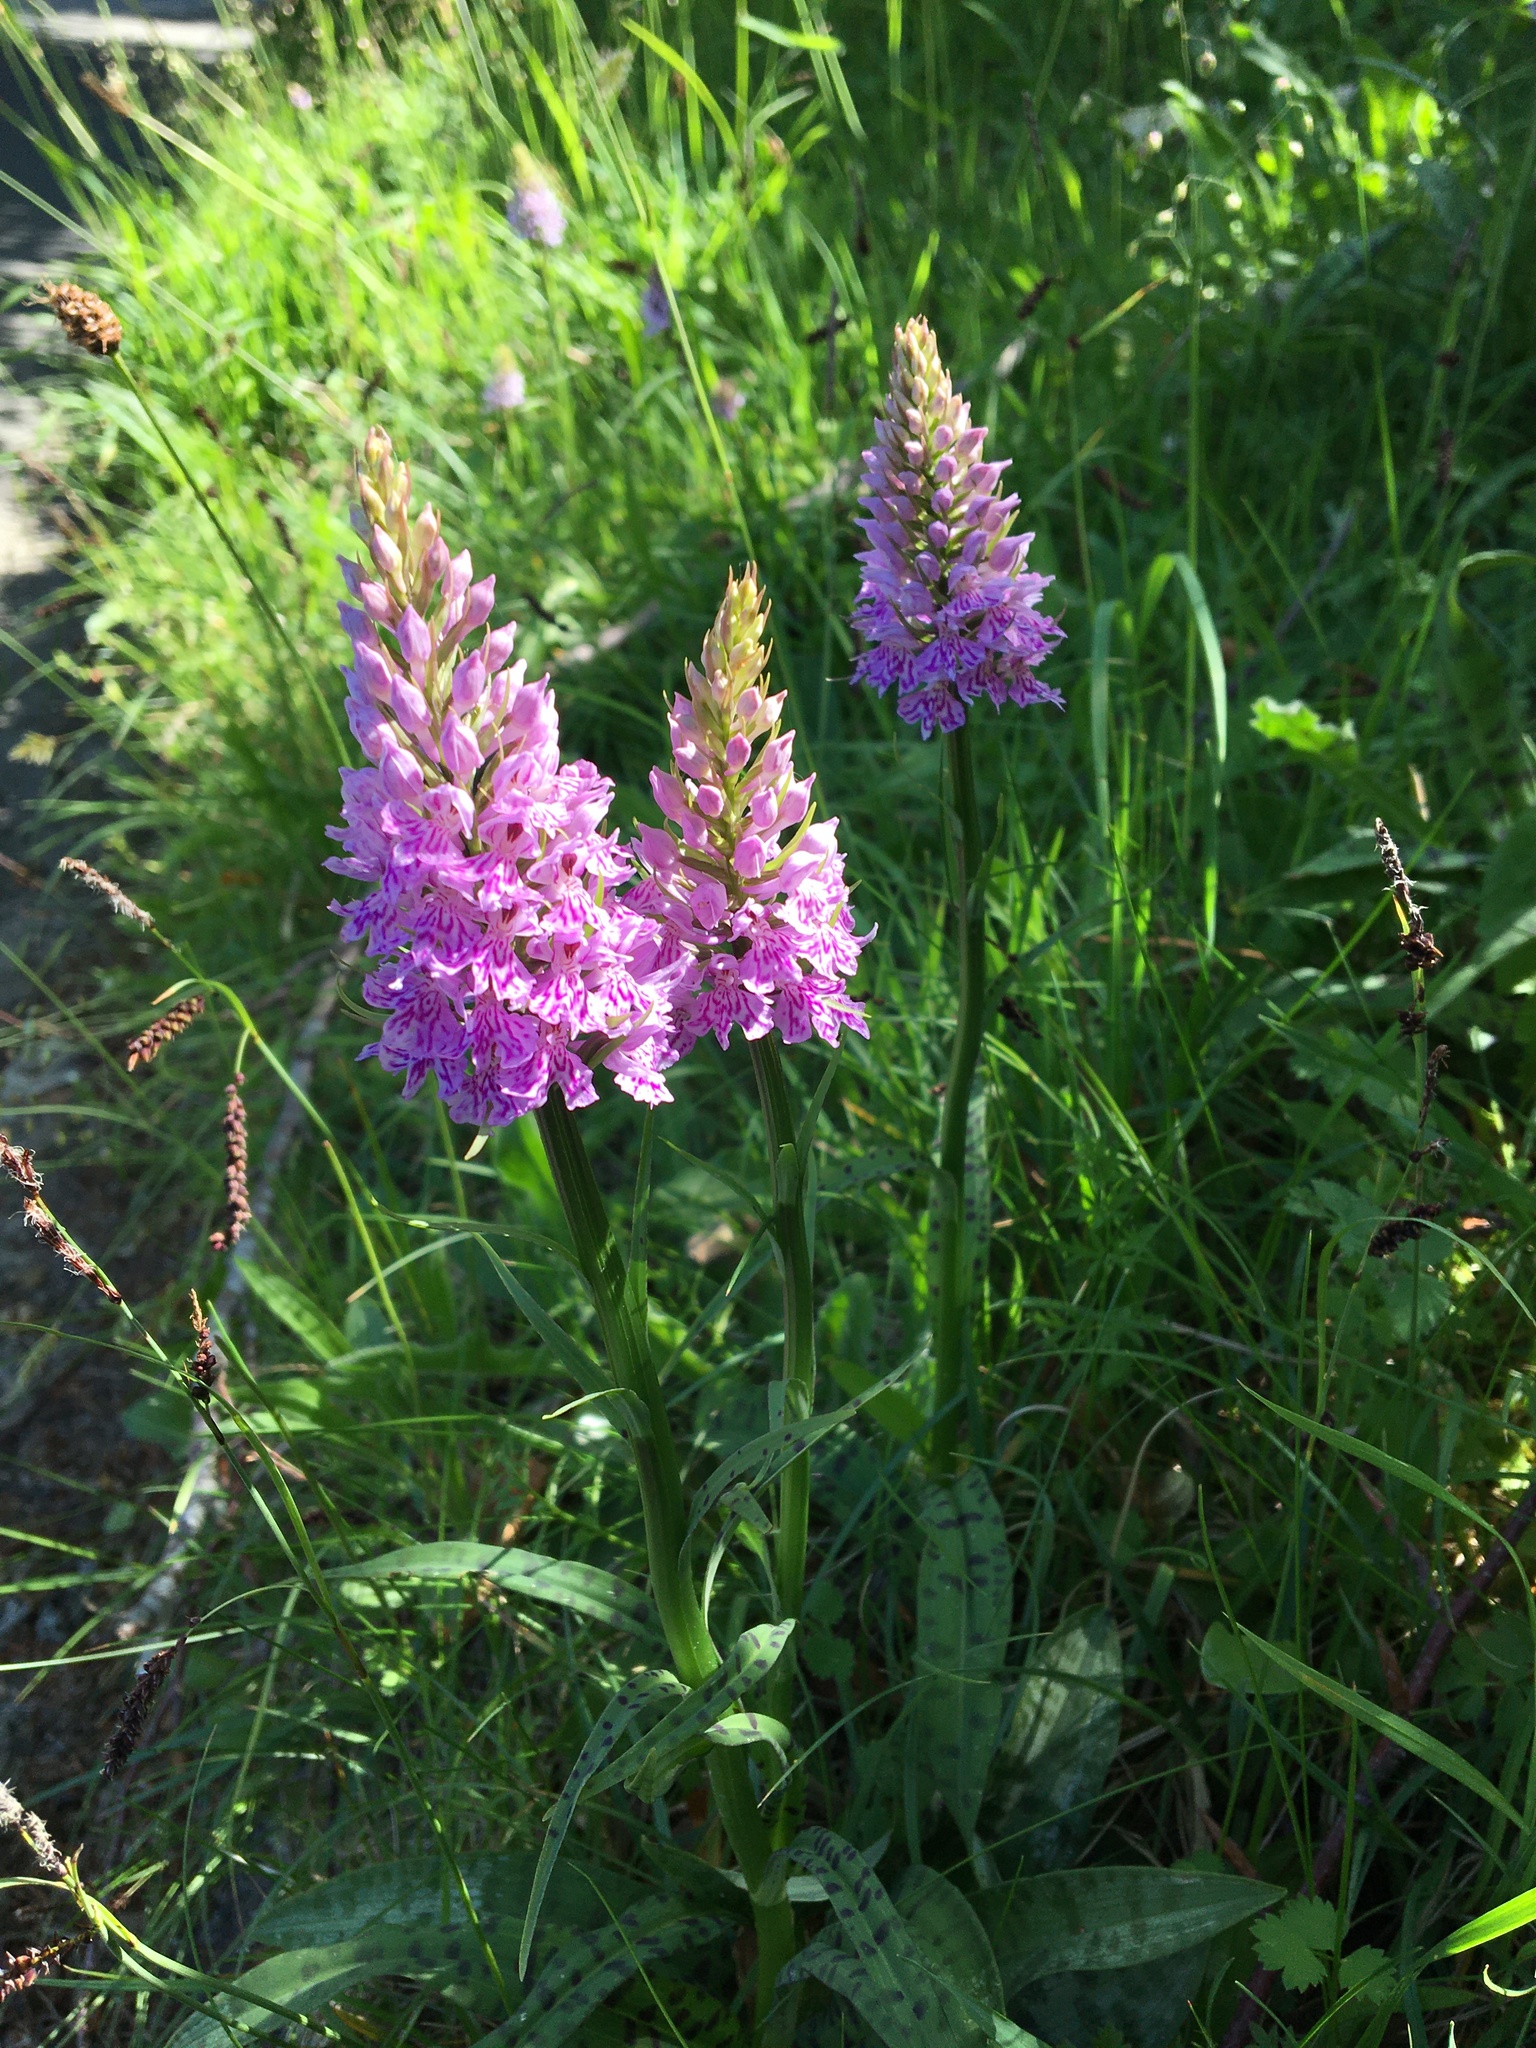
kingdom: Plantae
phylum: Tracheophyta
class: Liliopsida
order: Asparagales
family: Orchidaceae
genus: Dactylorhiza
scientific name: Dactylorhiza maculata
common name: Heath spotted-orchid
